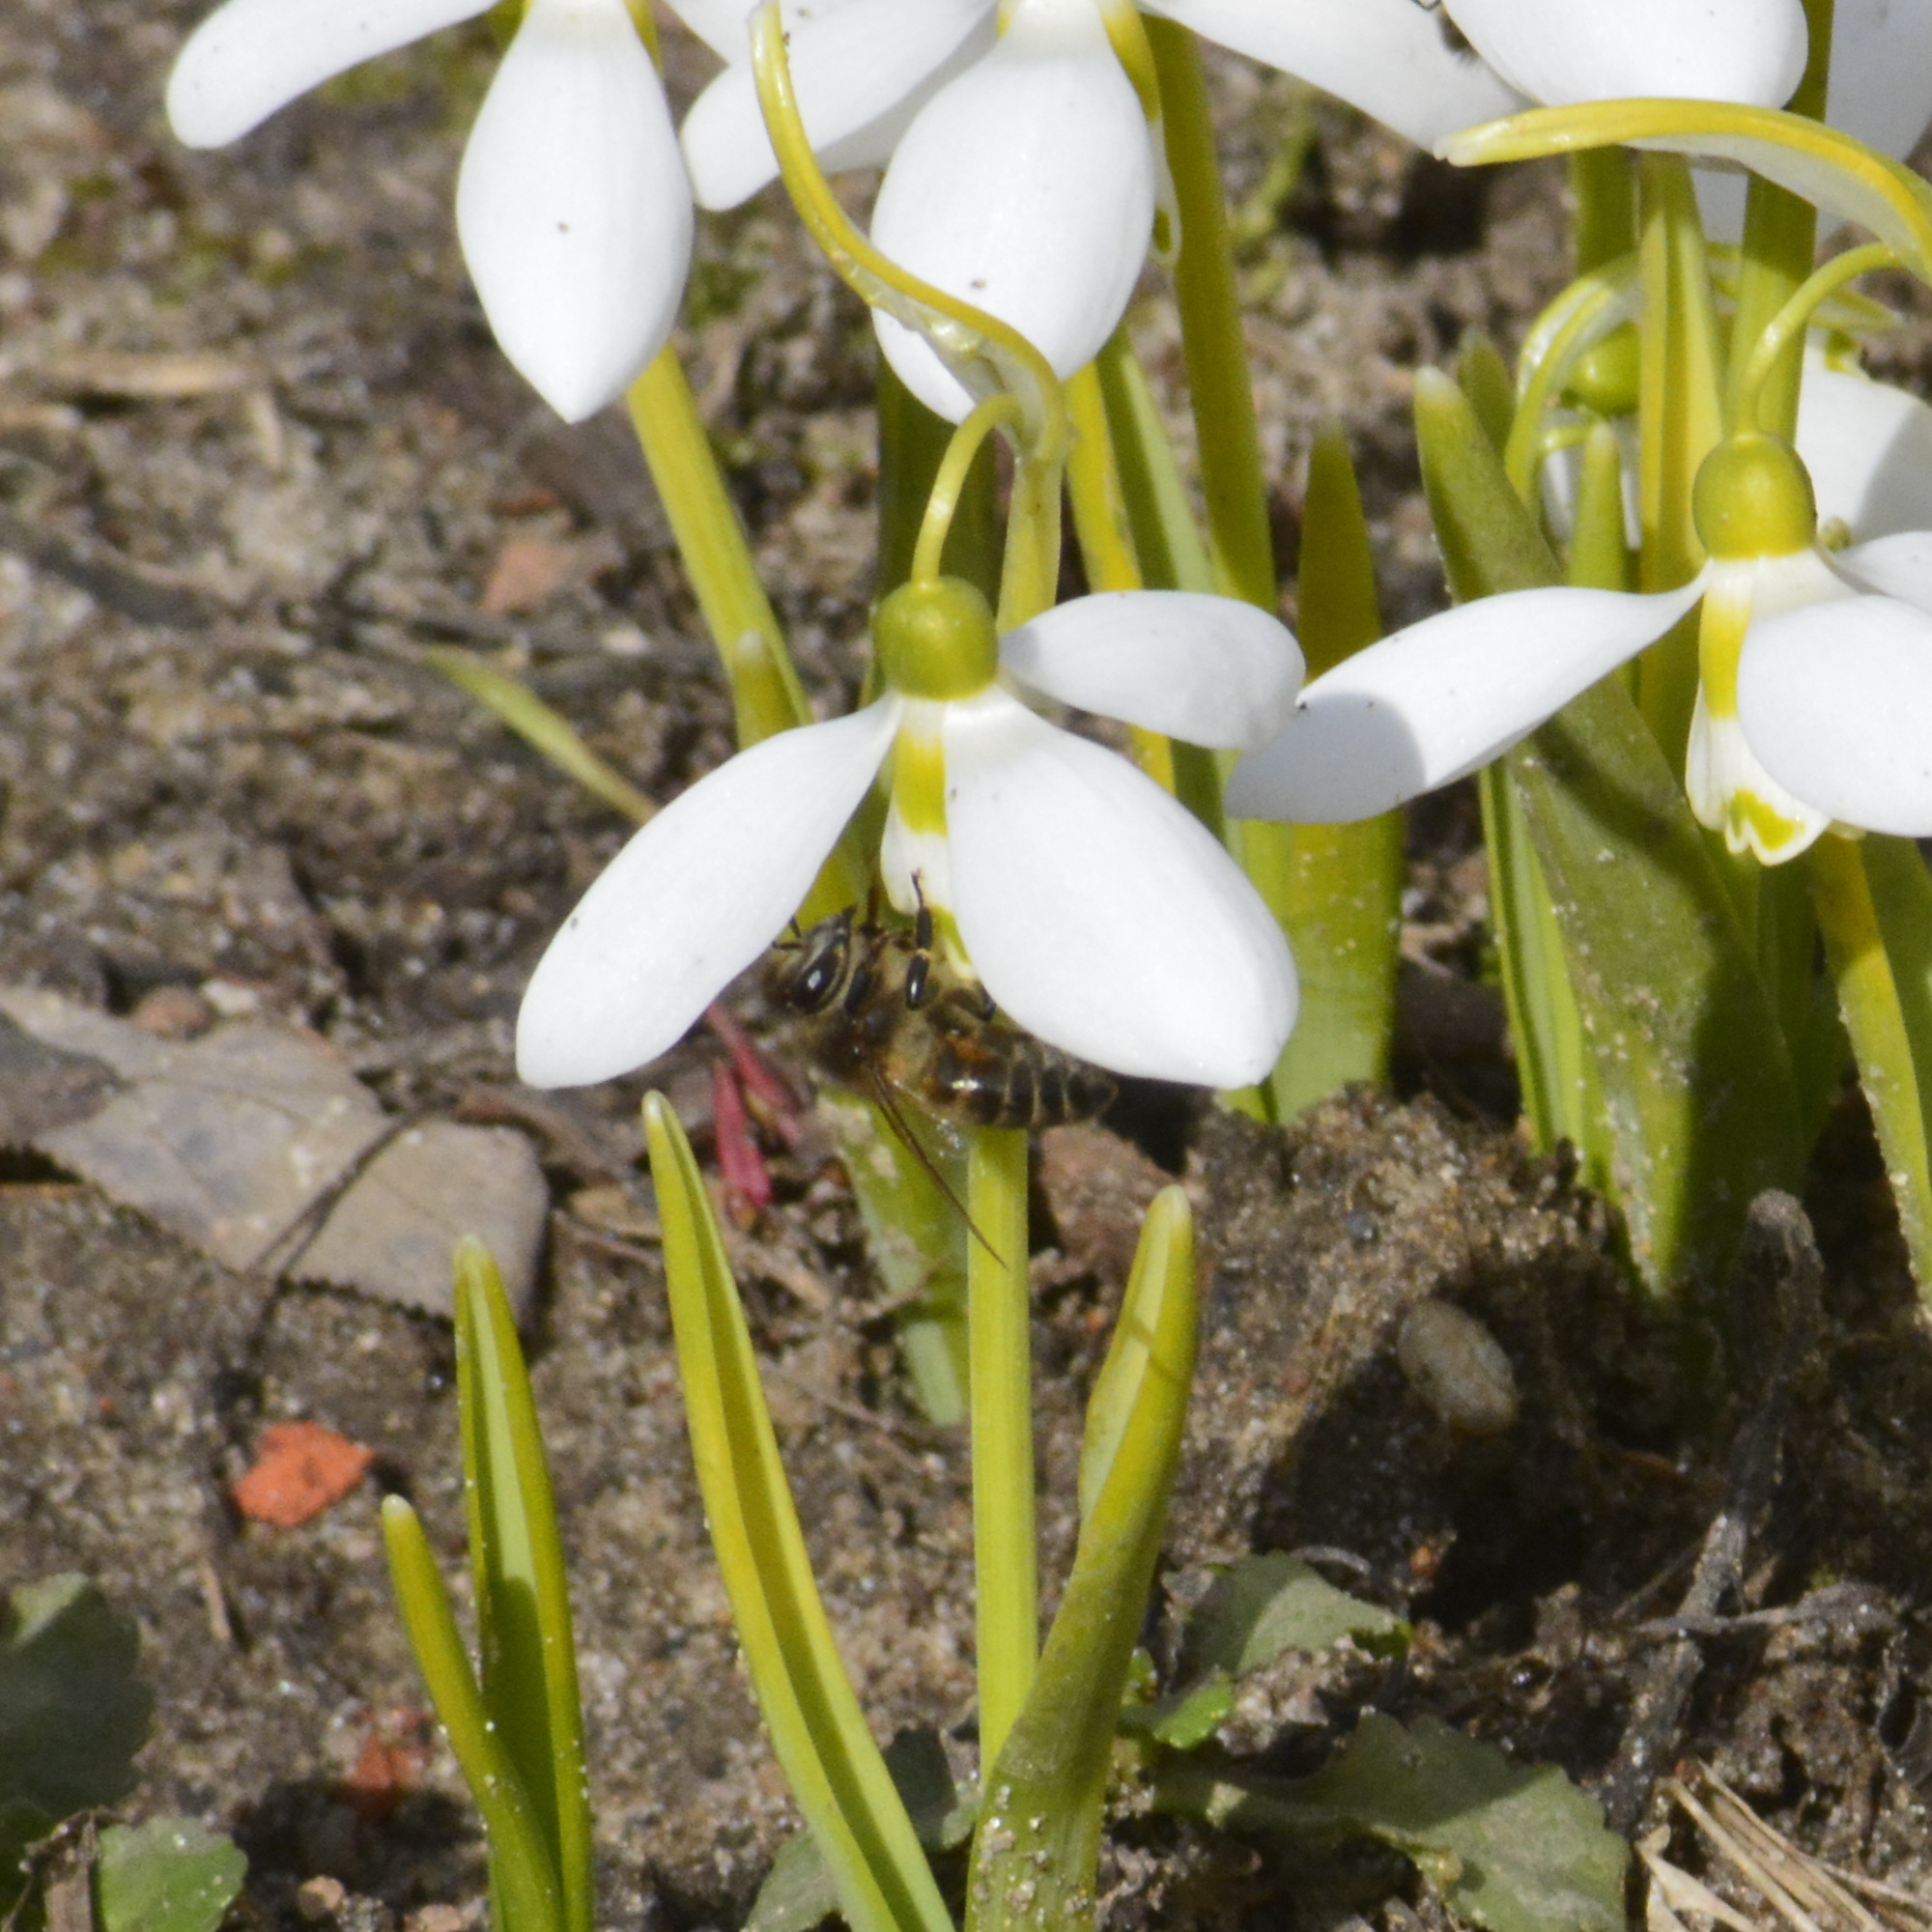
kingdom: Animalia
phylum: Arthropoda
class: Insecta
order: Hymenoptera
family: Apidae
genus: Apis
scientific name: Apis mellifera
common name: Honey bee
